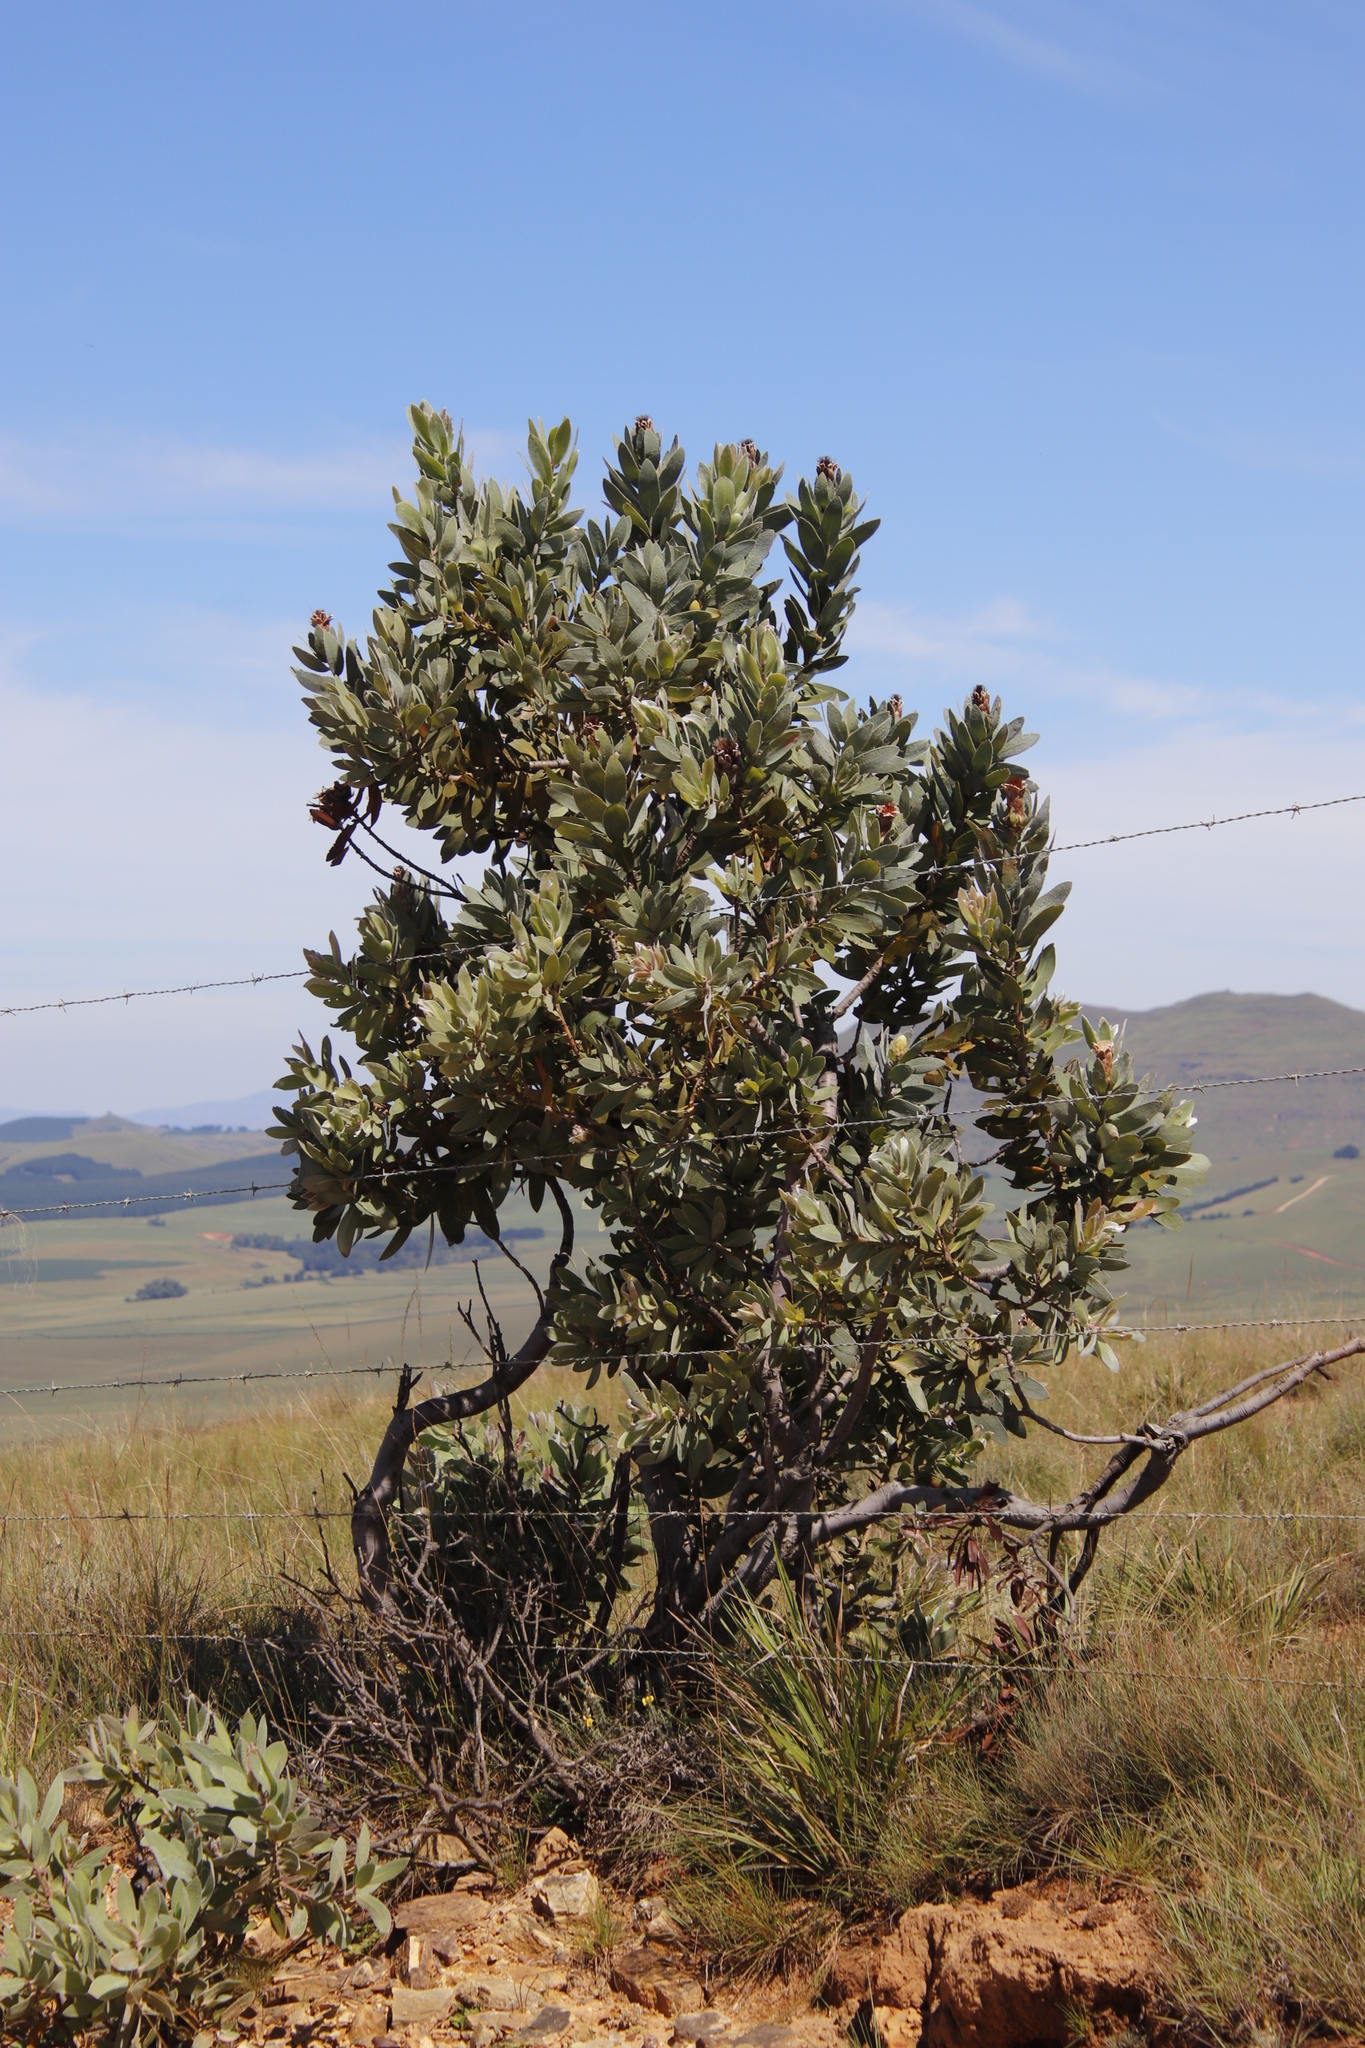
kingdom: Plantae
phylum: Tracheophyta
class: Magnoliopsida
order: Proteales
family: Proteaceae
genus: Protea
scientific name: Protea subvestita
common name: Lip-flower sugarbush
